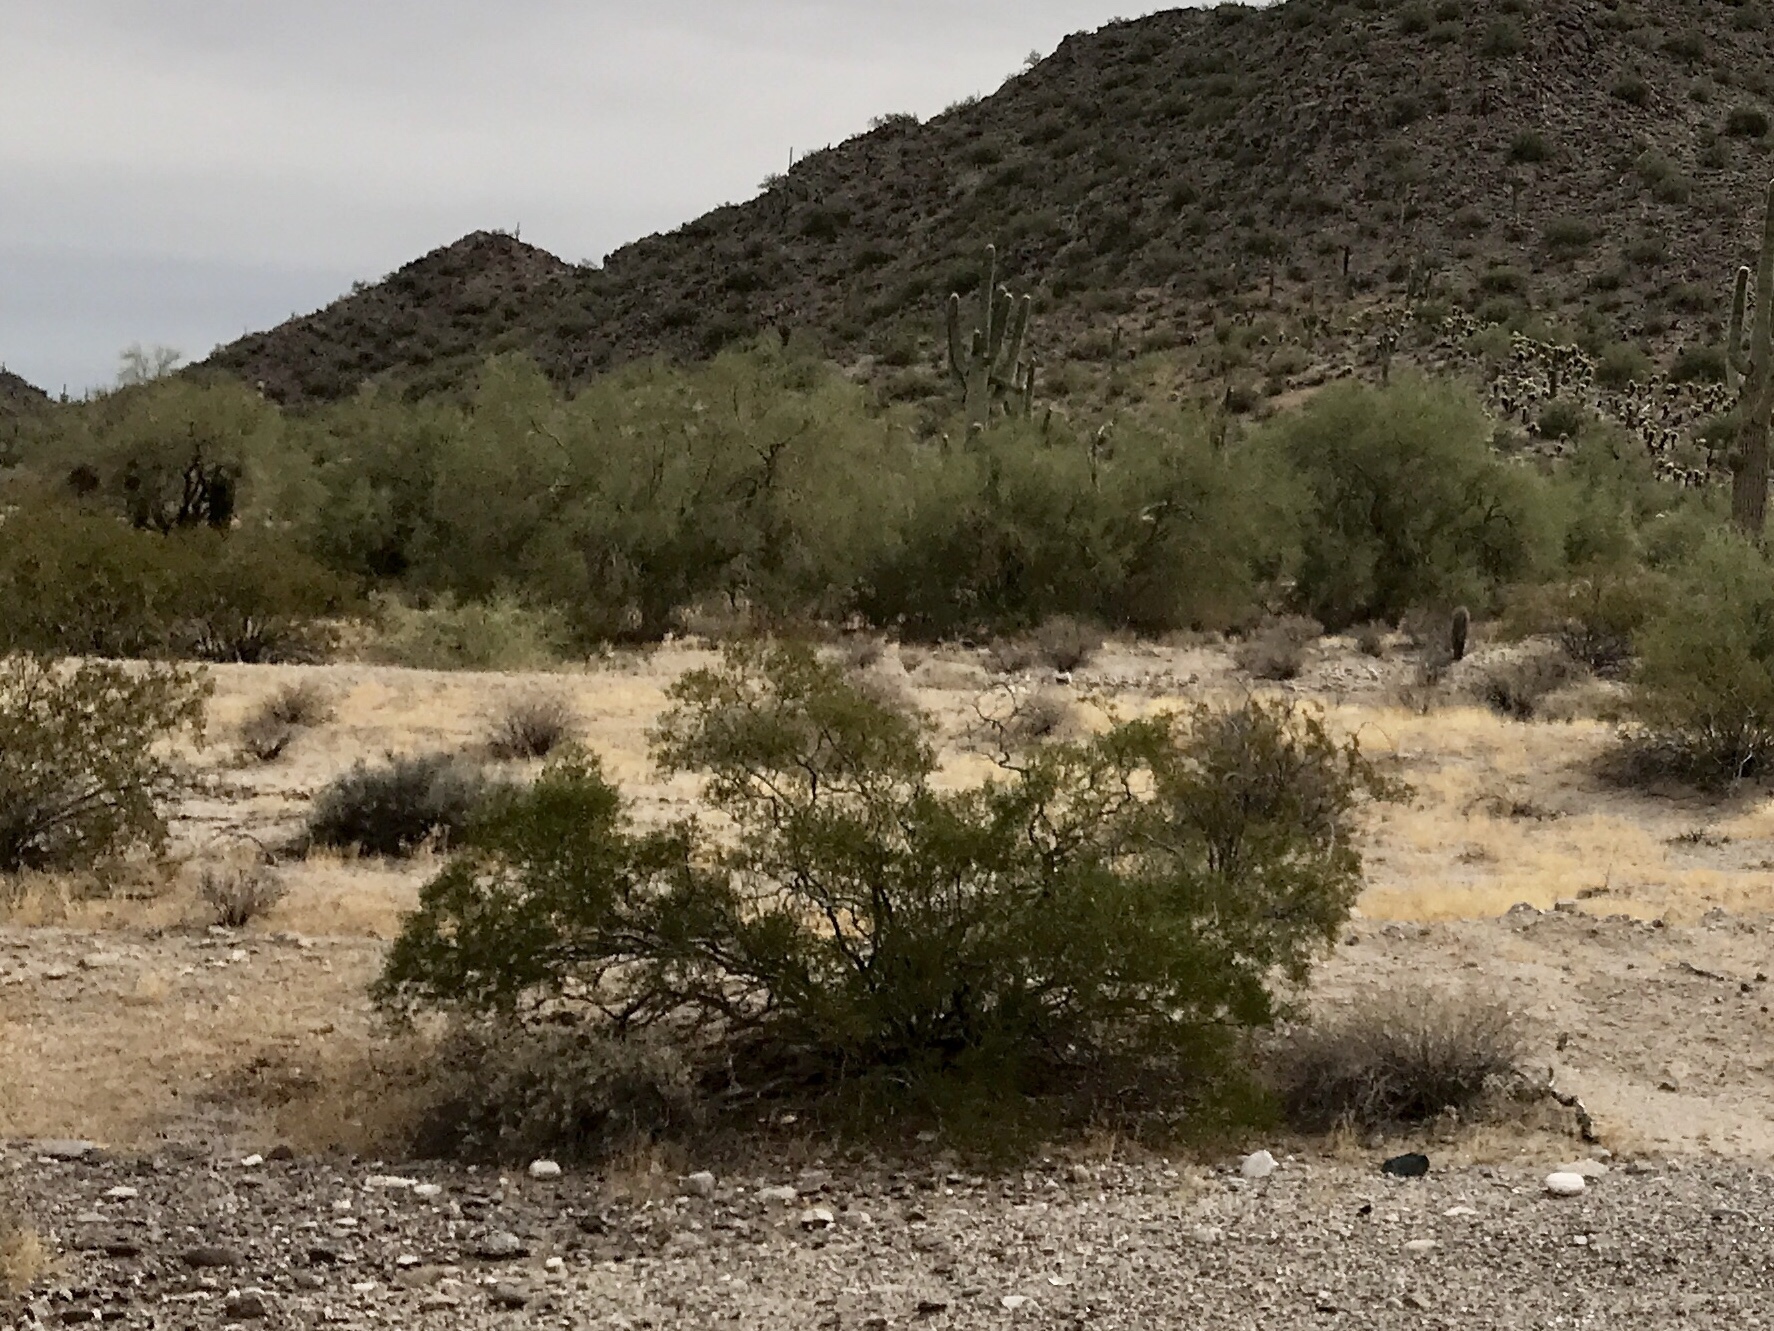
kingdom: Plantae
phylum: Tracheophyta
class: Magnoliopsida
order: Zygophyllales
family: Zygophyllaceae
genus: Larrea
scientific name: Larrea tridentata
